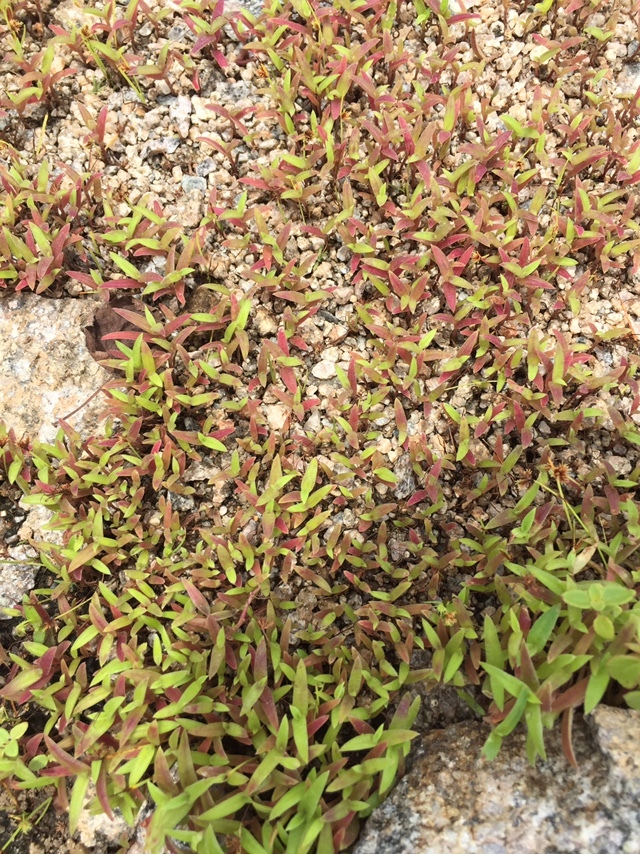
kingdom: Plantae
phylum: Tracheophyta
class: Liliopsida
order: Commelinales
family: Commelinaceae
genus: Cyanotis
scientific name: Cyanotis fasciculata
